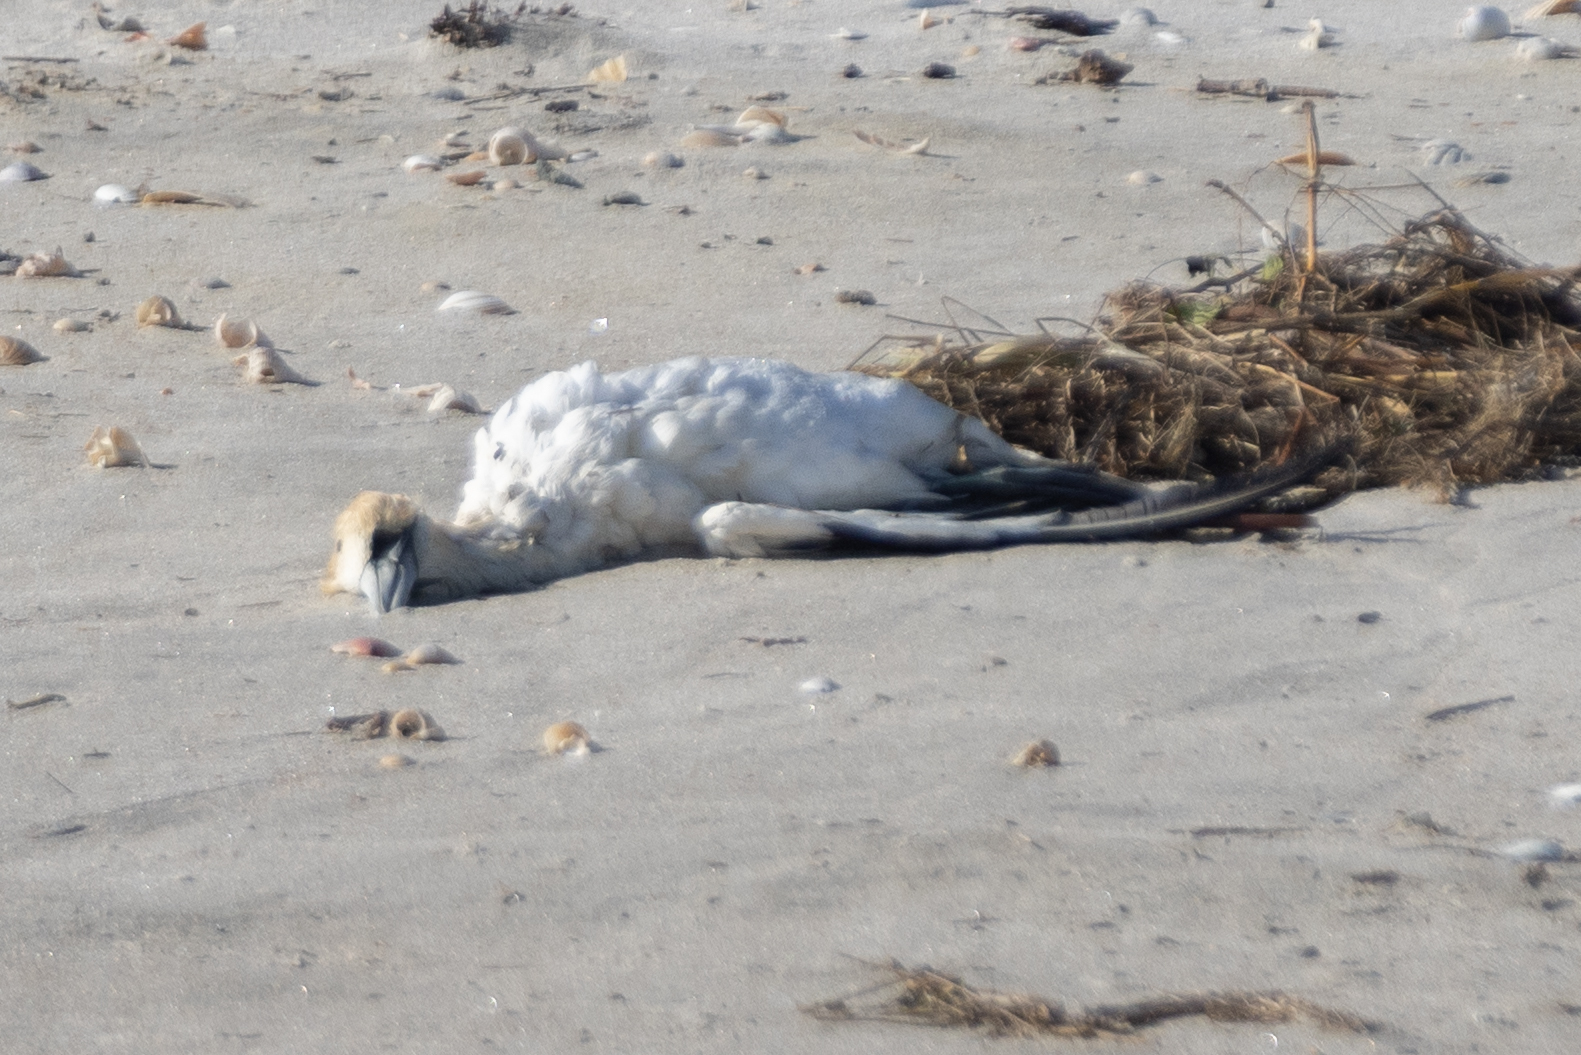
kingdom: Animalia
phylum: Chordata
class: Aves
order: Suliformes
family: Sulidae
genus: Morus
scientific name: Morus serrator
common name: Australasian gannet
